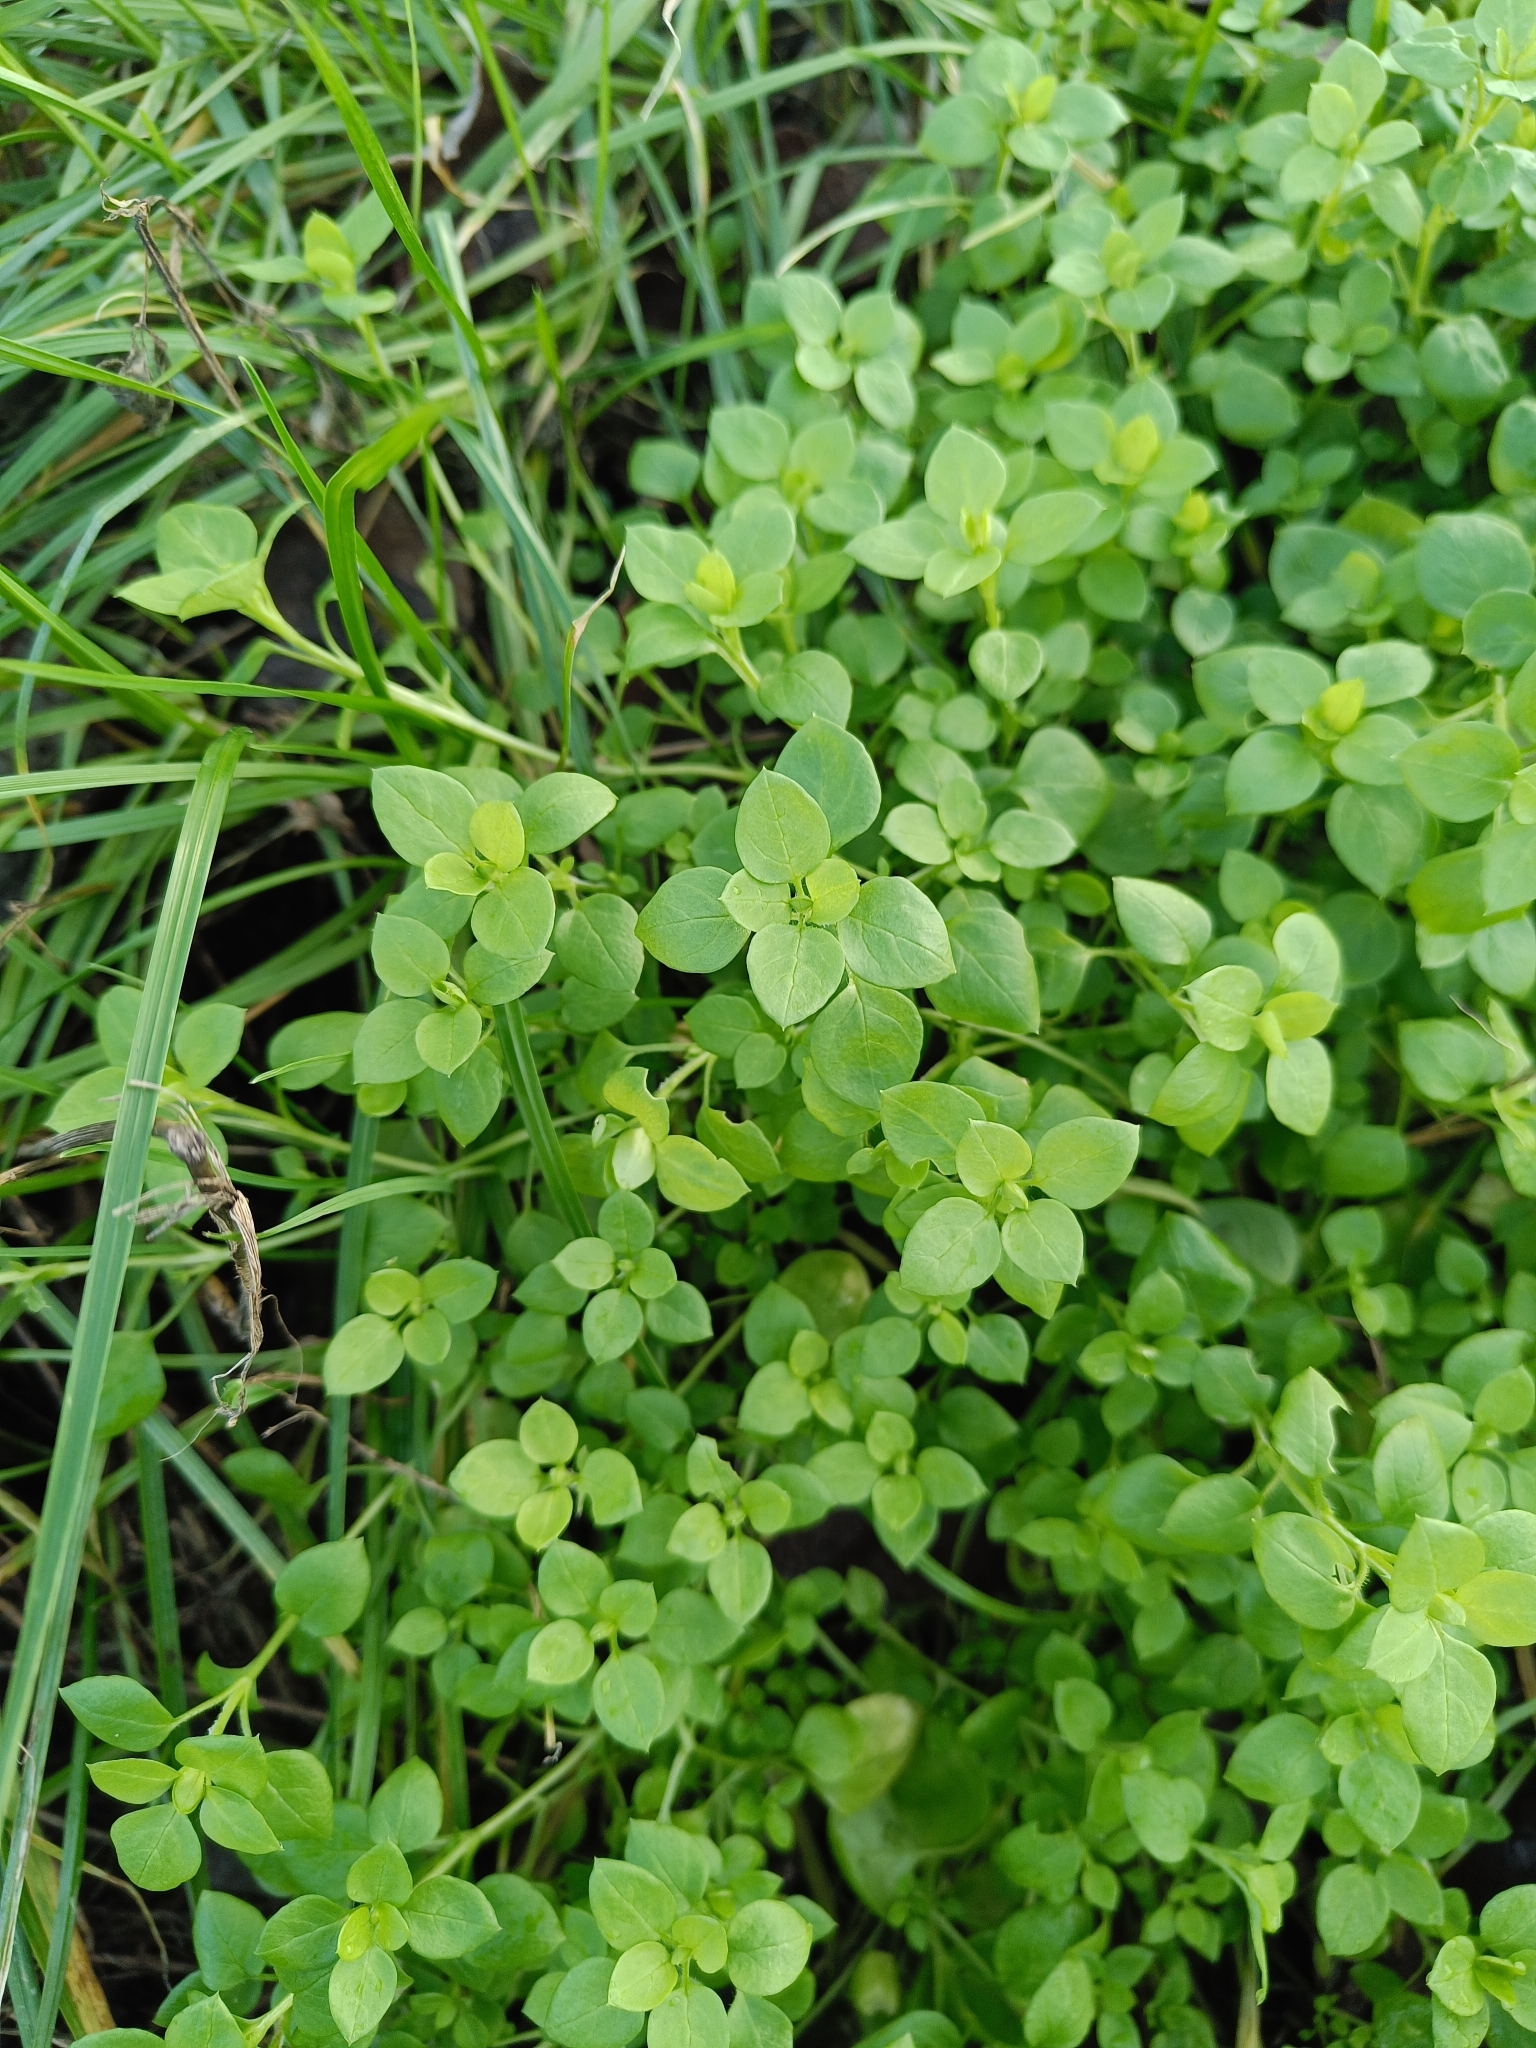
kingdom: Plantae
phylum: Tracheophyta
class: Magnoliopsida
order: Caryophyllales
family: Caryophyllaceae
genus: Stellaria
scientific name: Stellaria media
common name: Common chickweed
